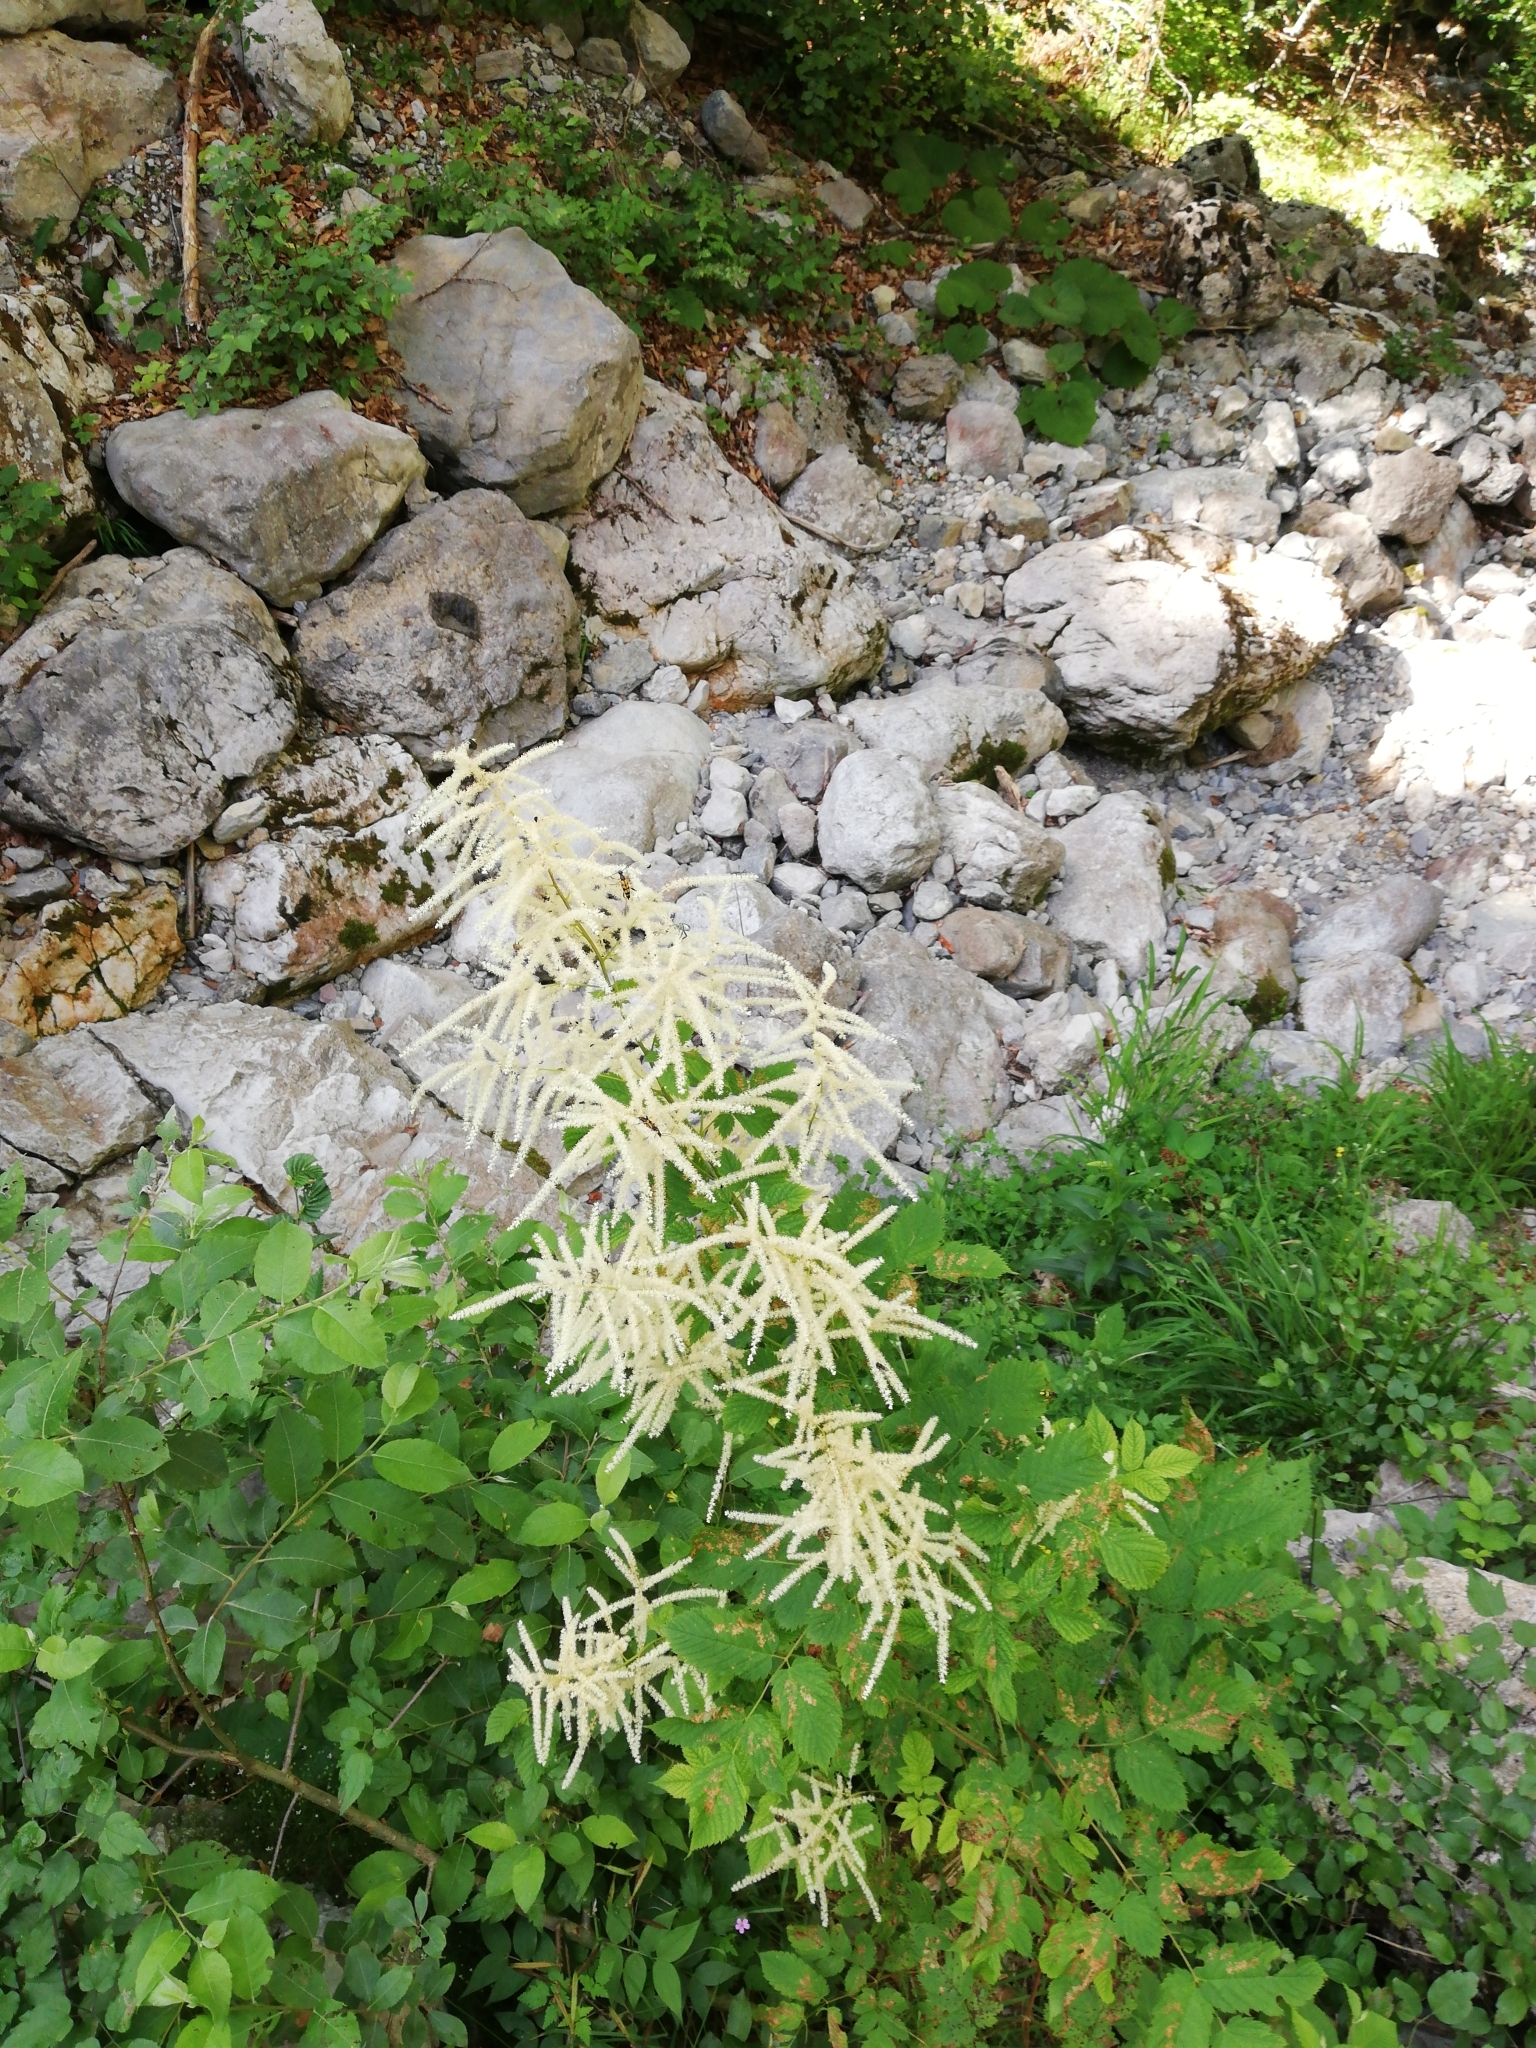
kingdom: Plantae
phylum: Tracheophyta
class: Magnoliopsida
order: Rosales
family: Rosaceae
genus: Aruncus
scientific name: Aruncus dioicus
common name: Buck's-beard
